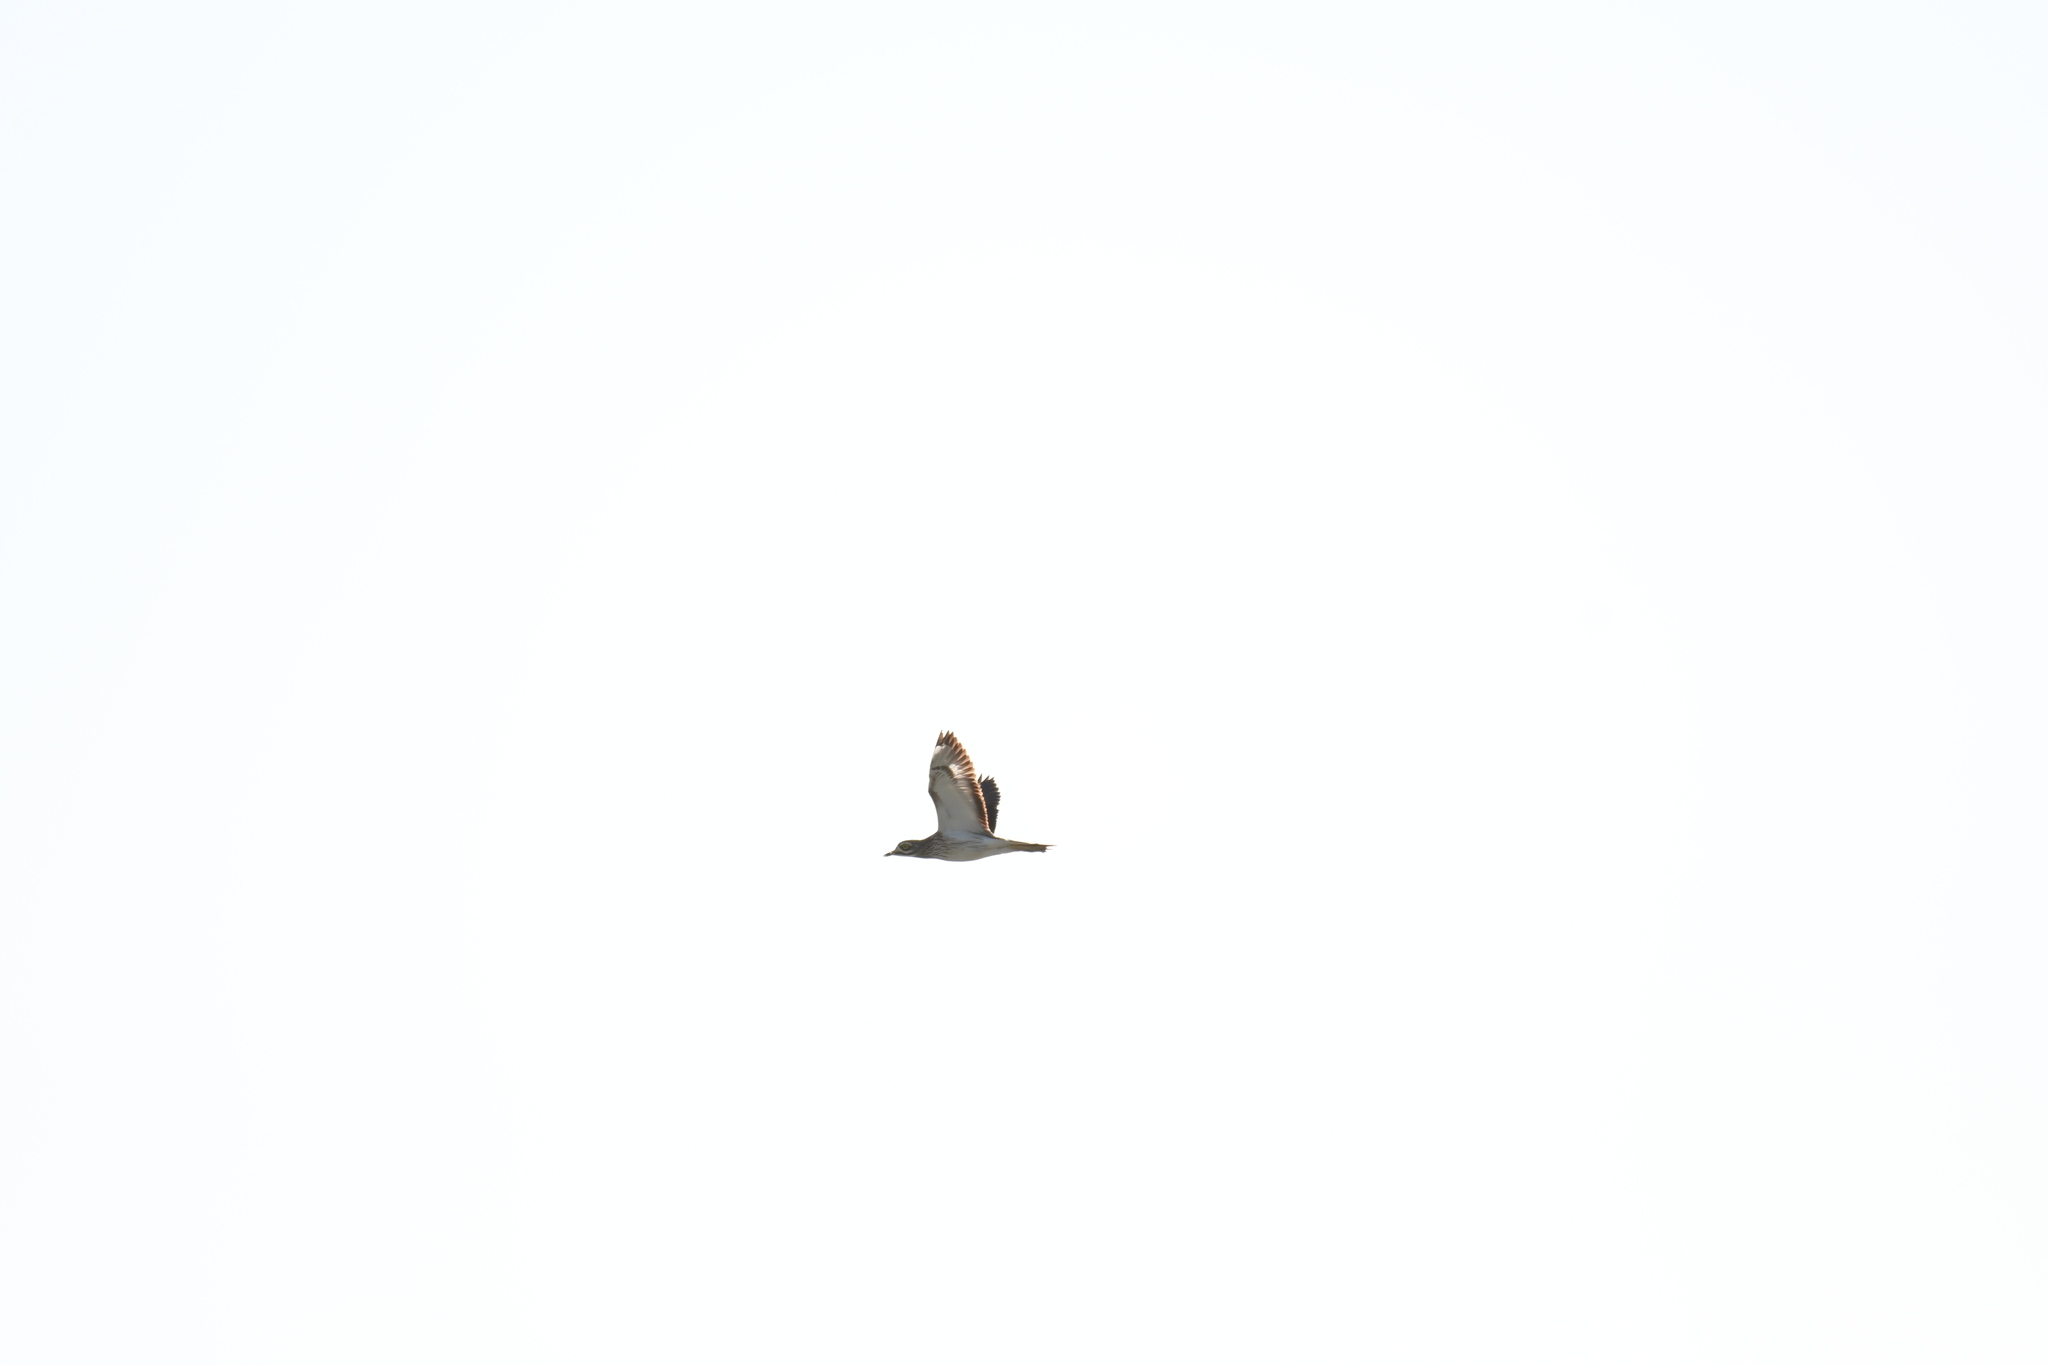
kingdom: Animalia
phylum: Chordata
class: Aves
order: Charadriiformes
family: Burhinidae
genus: Burhinus
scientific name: Burhinus oedicnemus
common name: Eurasian stone-curlew
